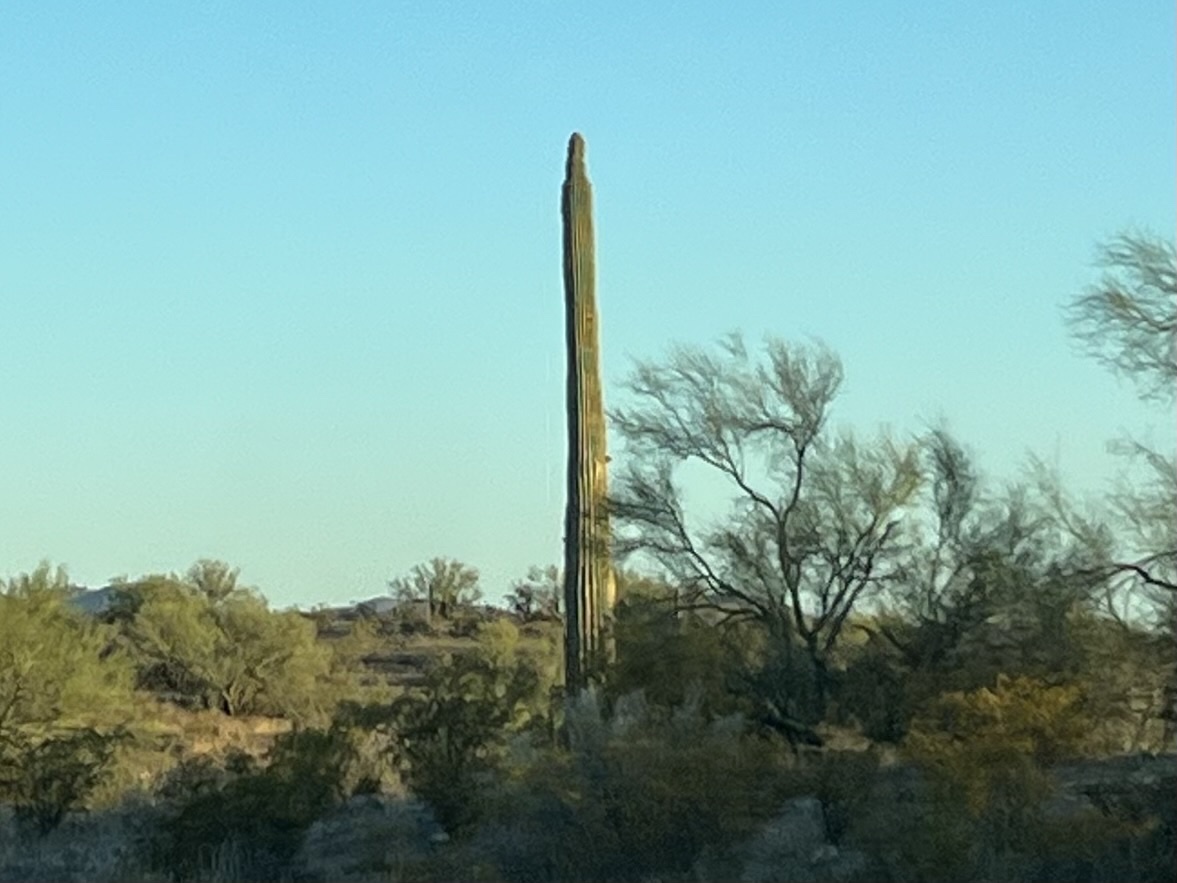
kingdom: Plantae
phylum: Tracheophyta
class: Magnoliopsida
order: Caryophyllales
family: Cactaceae
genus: Carnegiea
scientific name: Carnegiea gigantea
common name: Saguaro
